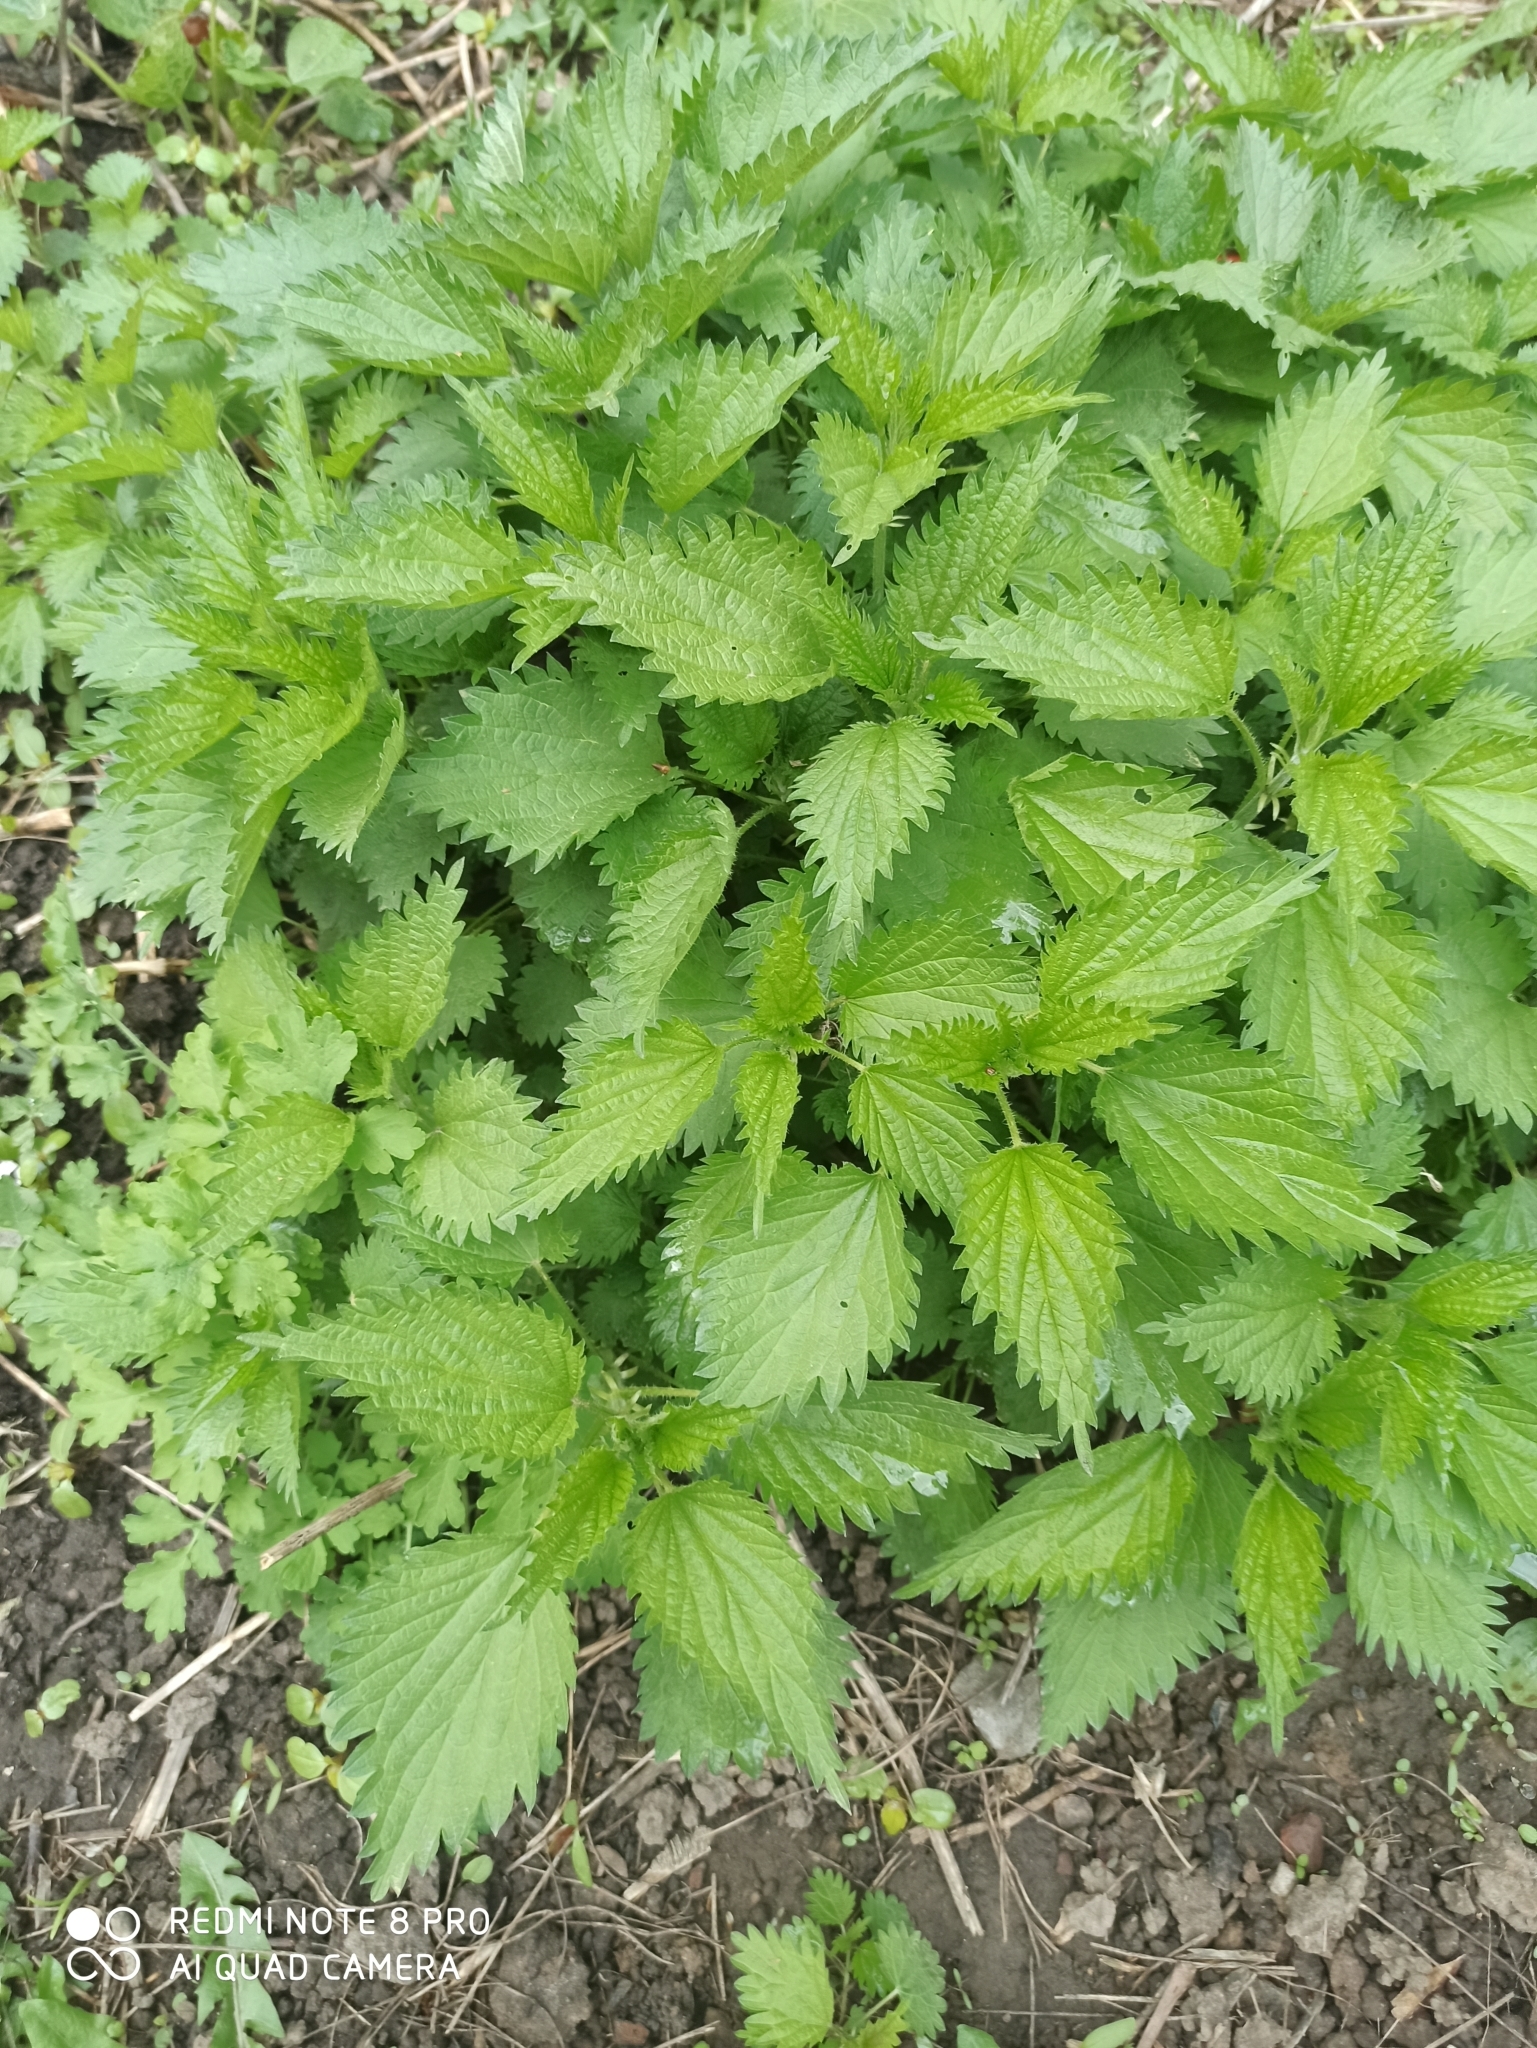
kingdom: Plantae
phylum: Tracheophyta
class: Magnoliopsida
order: Rosales
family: Urticaceae
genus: Urtica
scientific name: Urtica dioica
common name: Common nettle
